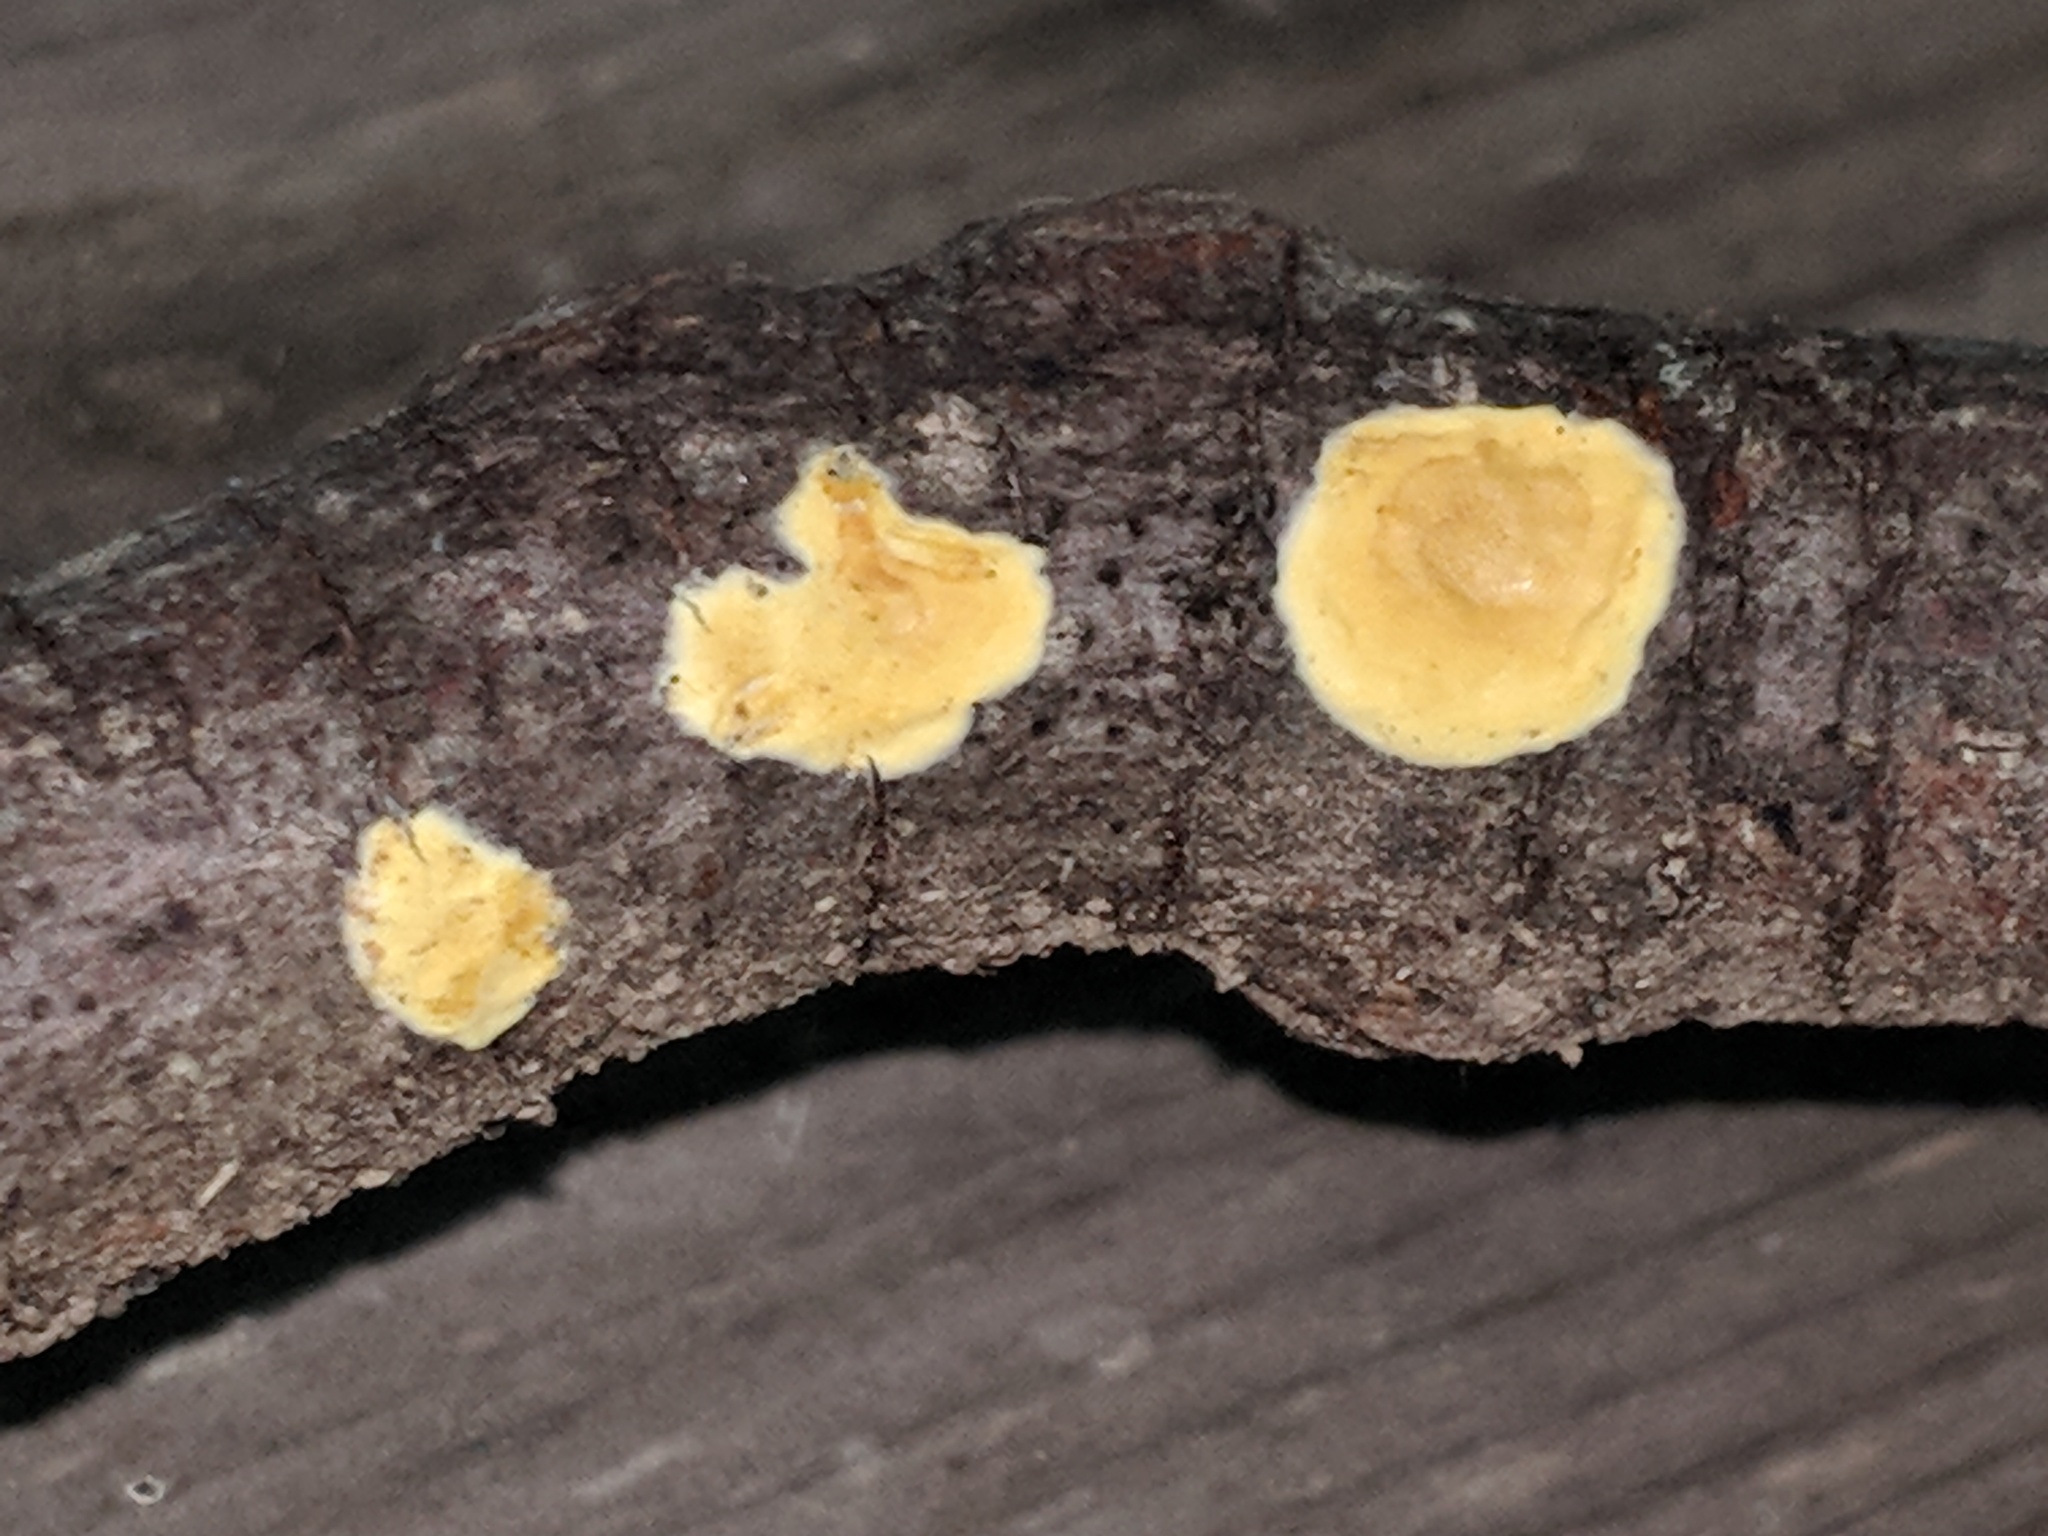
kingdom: Fungi
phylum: Ascomycota
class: Sordariomycetes
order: Hypocreales
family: Hypocreaceae
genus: Trichoderma
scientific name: Trichoderma sulphureum
